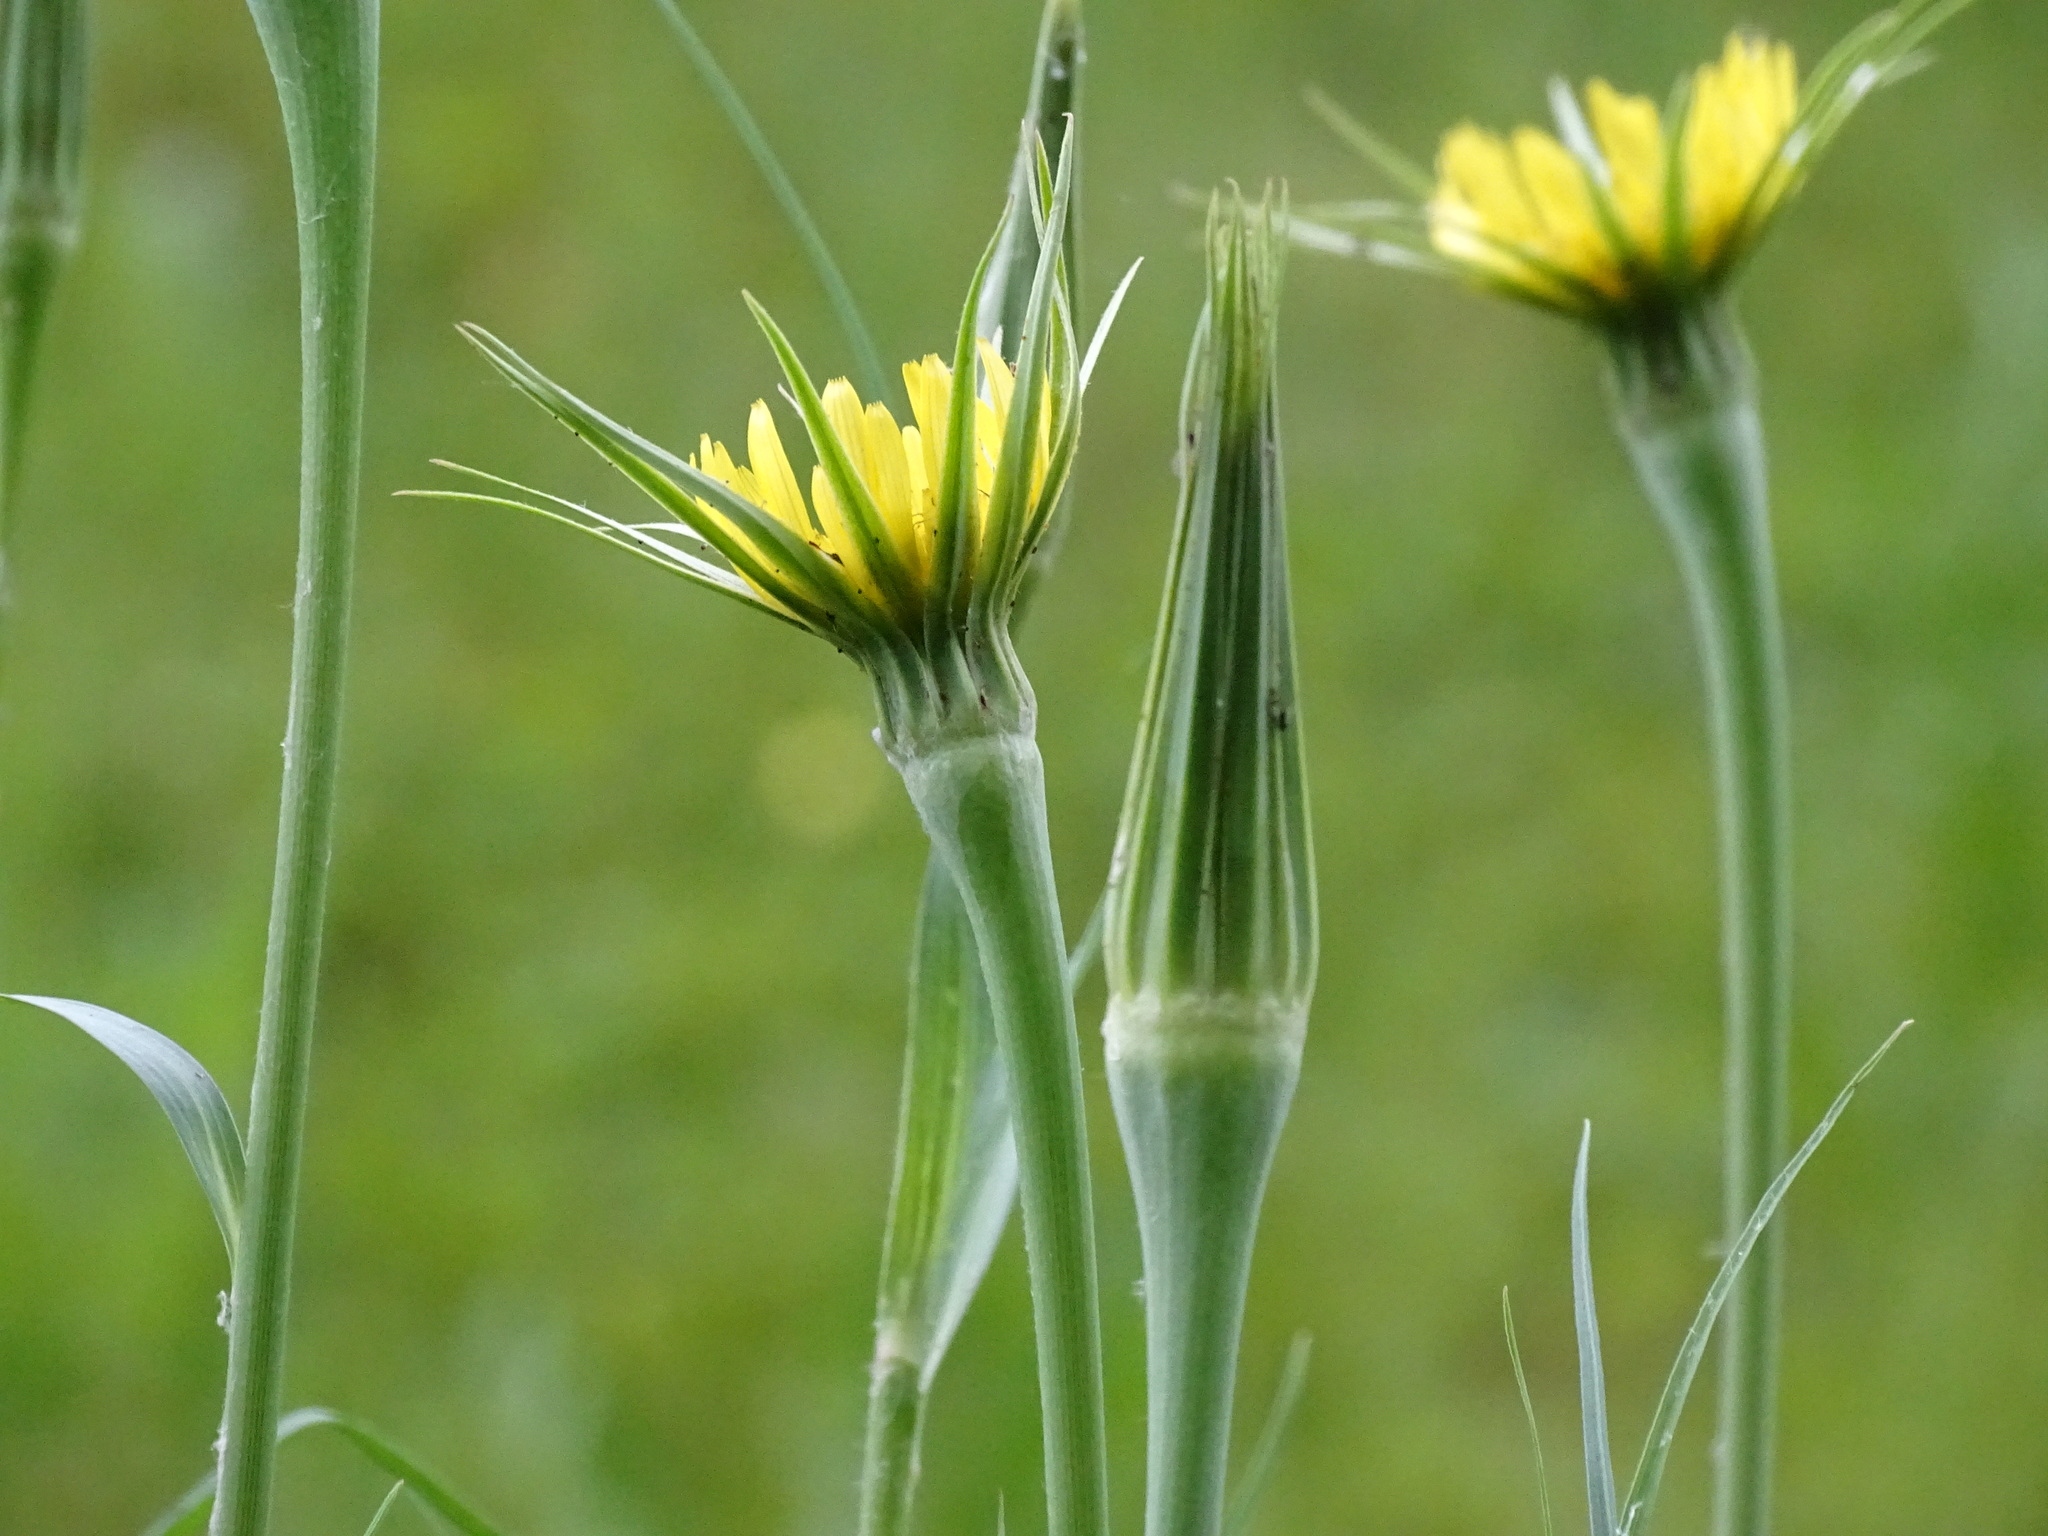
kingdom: Plantae
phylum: Tracheophyta
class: Magnoliopsida
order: Asterales
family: Asteraceae
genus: Tragopogon
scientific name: Tragopogon dubius
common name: Yellow salsify
